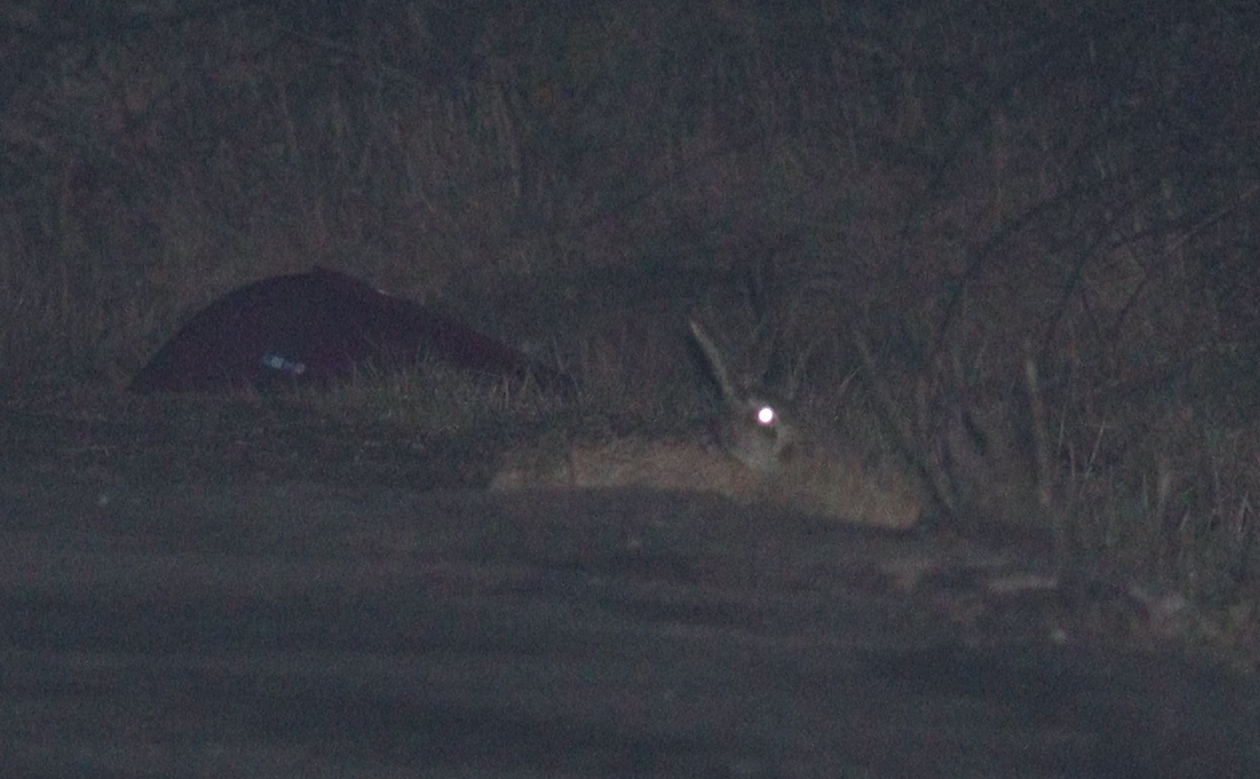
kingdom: Animalia
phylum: Chordata
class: Mammalia
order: Lagomorpha
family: Leporidae
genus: Lepus
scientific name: Lepus europaeus
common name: European hare
